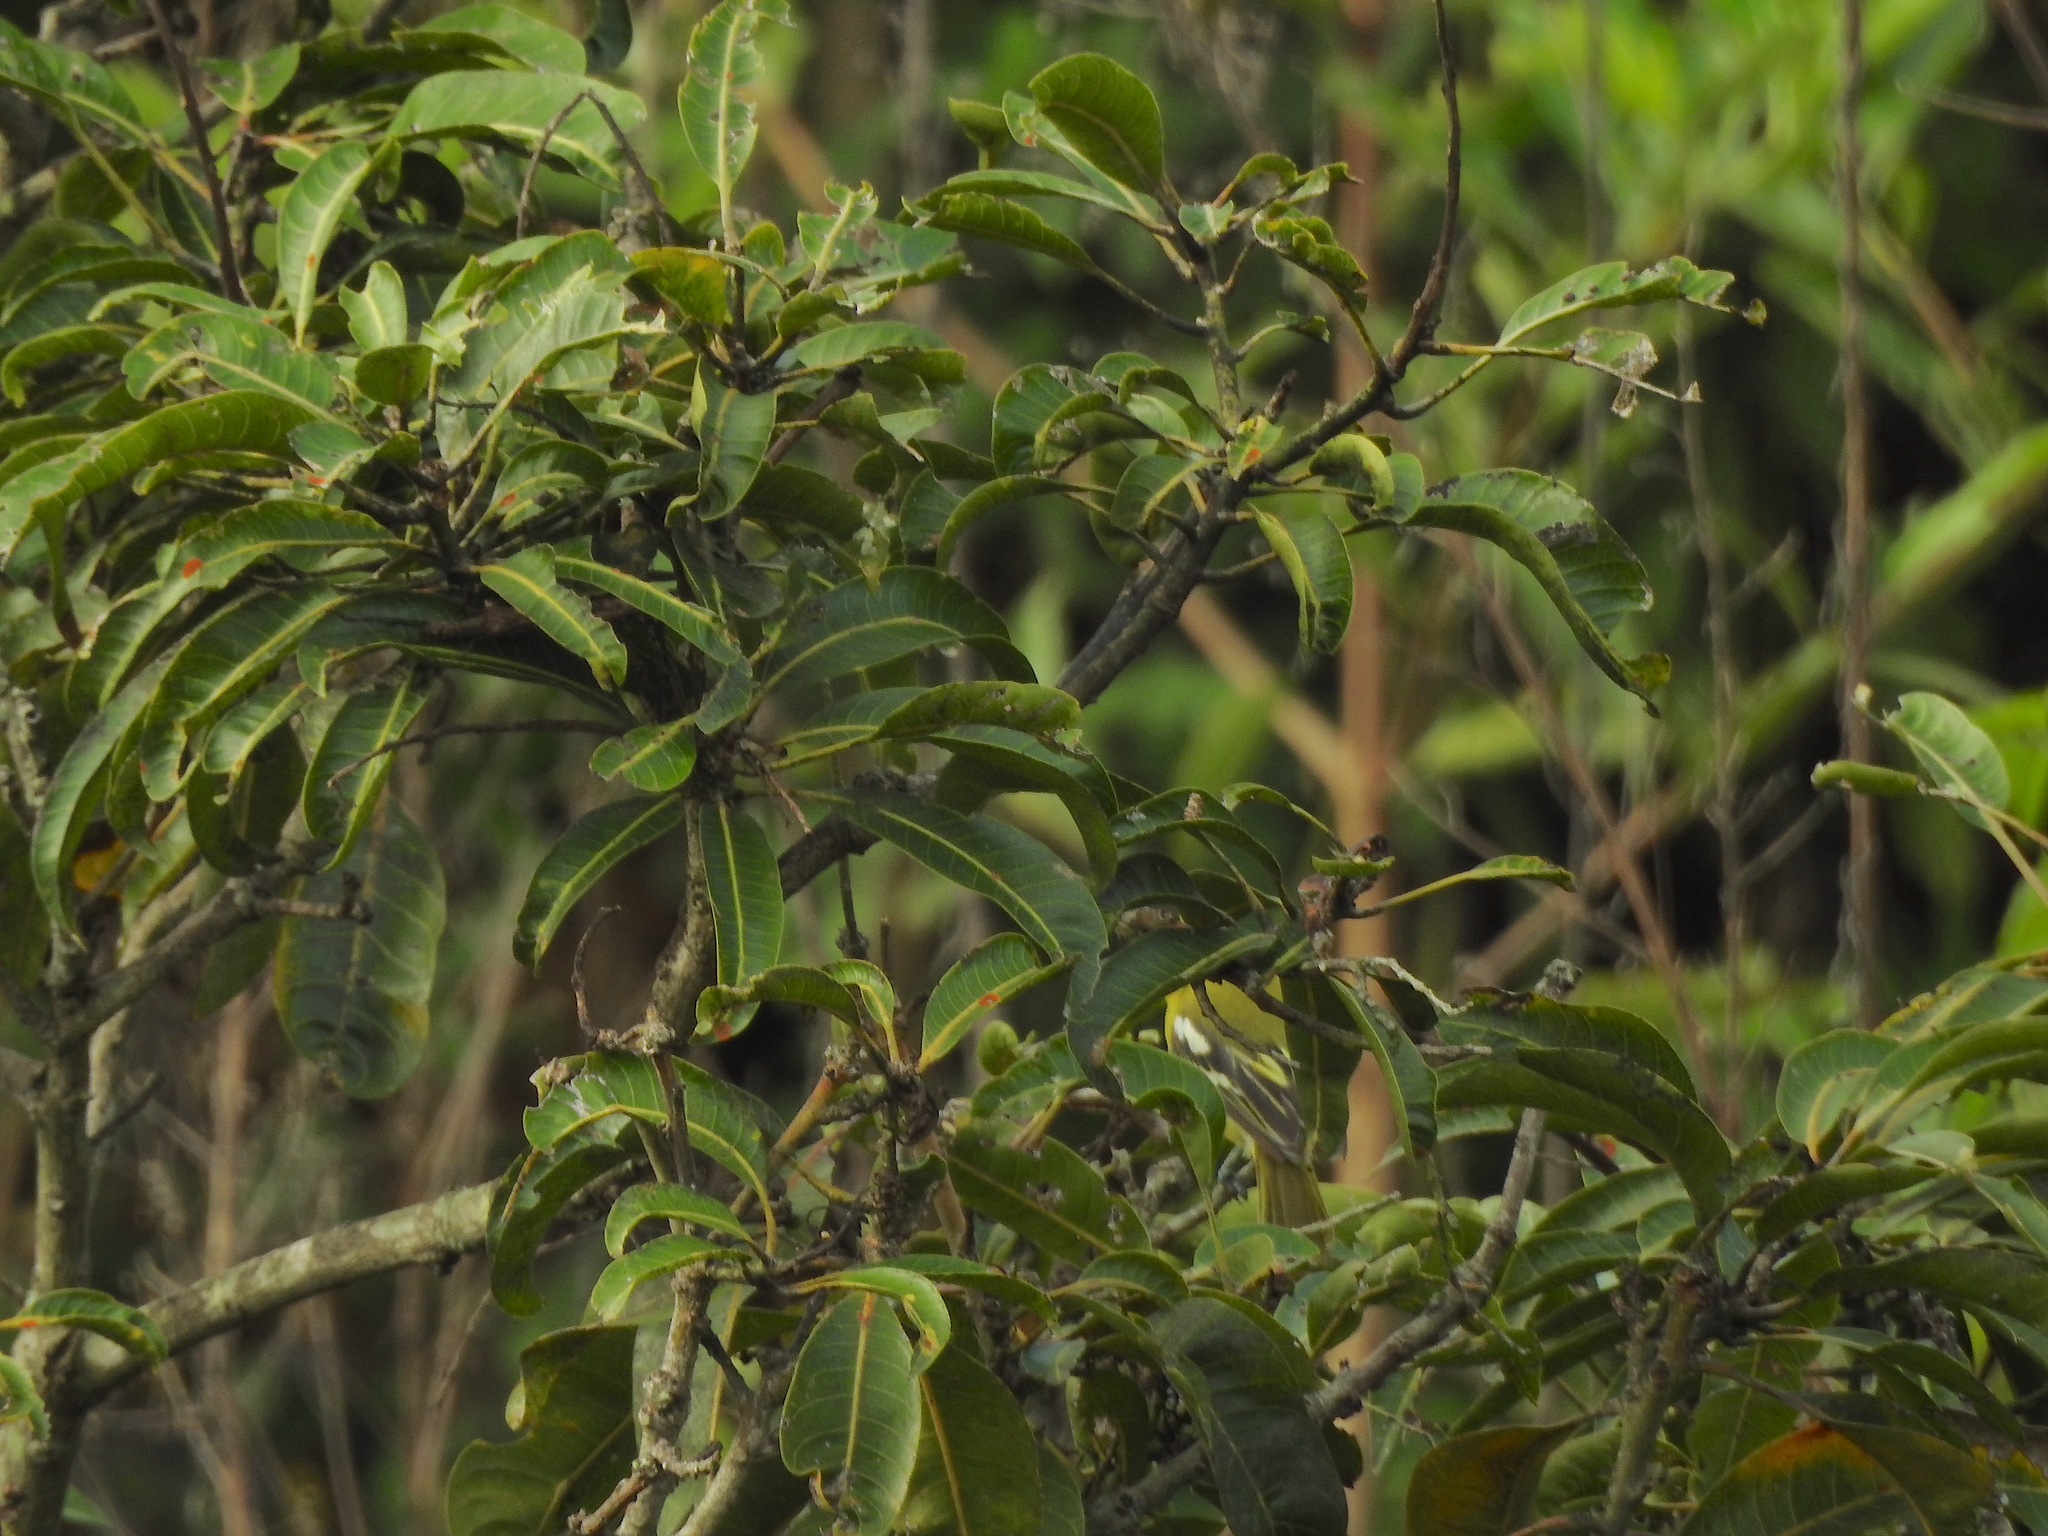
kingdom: Animalia
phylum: Chordata
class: Aves
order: Passeriformes
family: Aegithinidae
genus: Aegithina
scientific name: Aegithina tiphia
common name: Common iora
